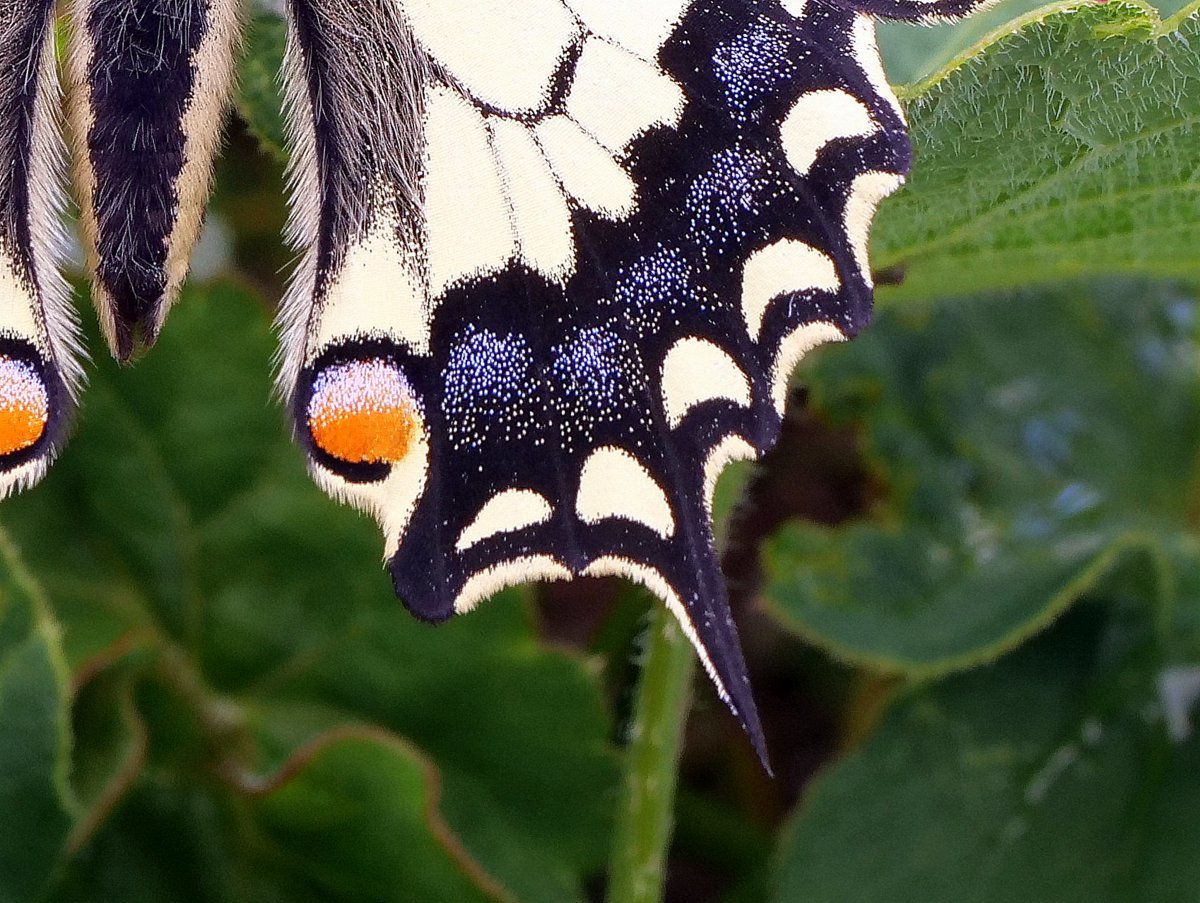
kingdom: Animalia
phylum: Arthropoda
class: Insecta
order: Lepidoptera
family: Papilionidae
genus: Papilio
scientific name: Papilio machaon
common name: Swallowtail
